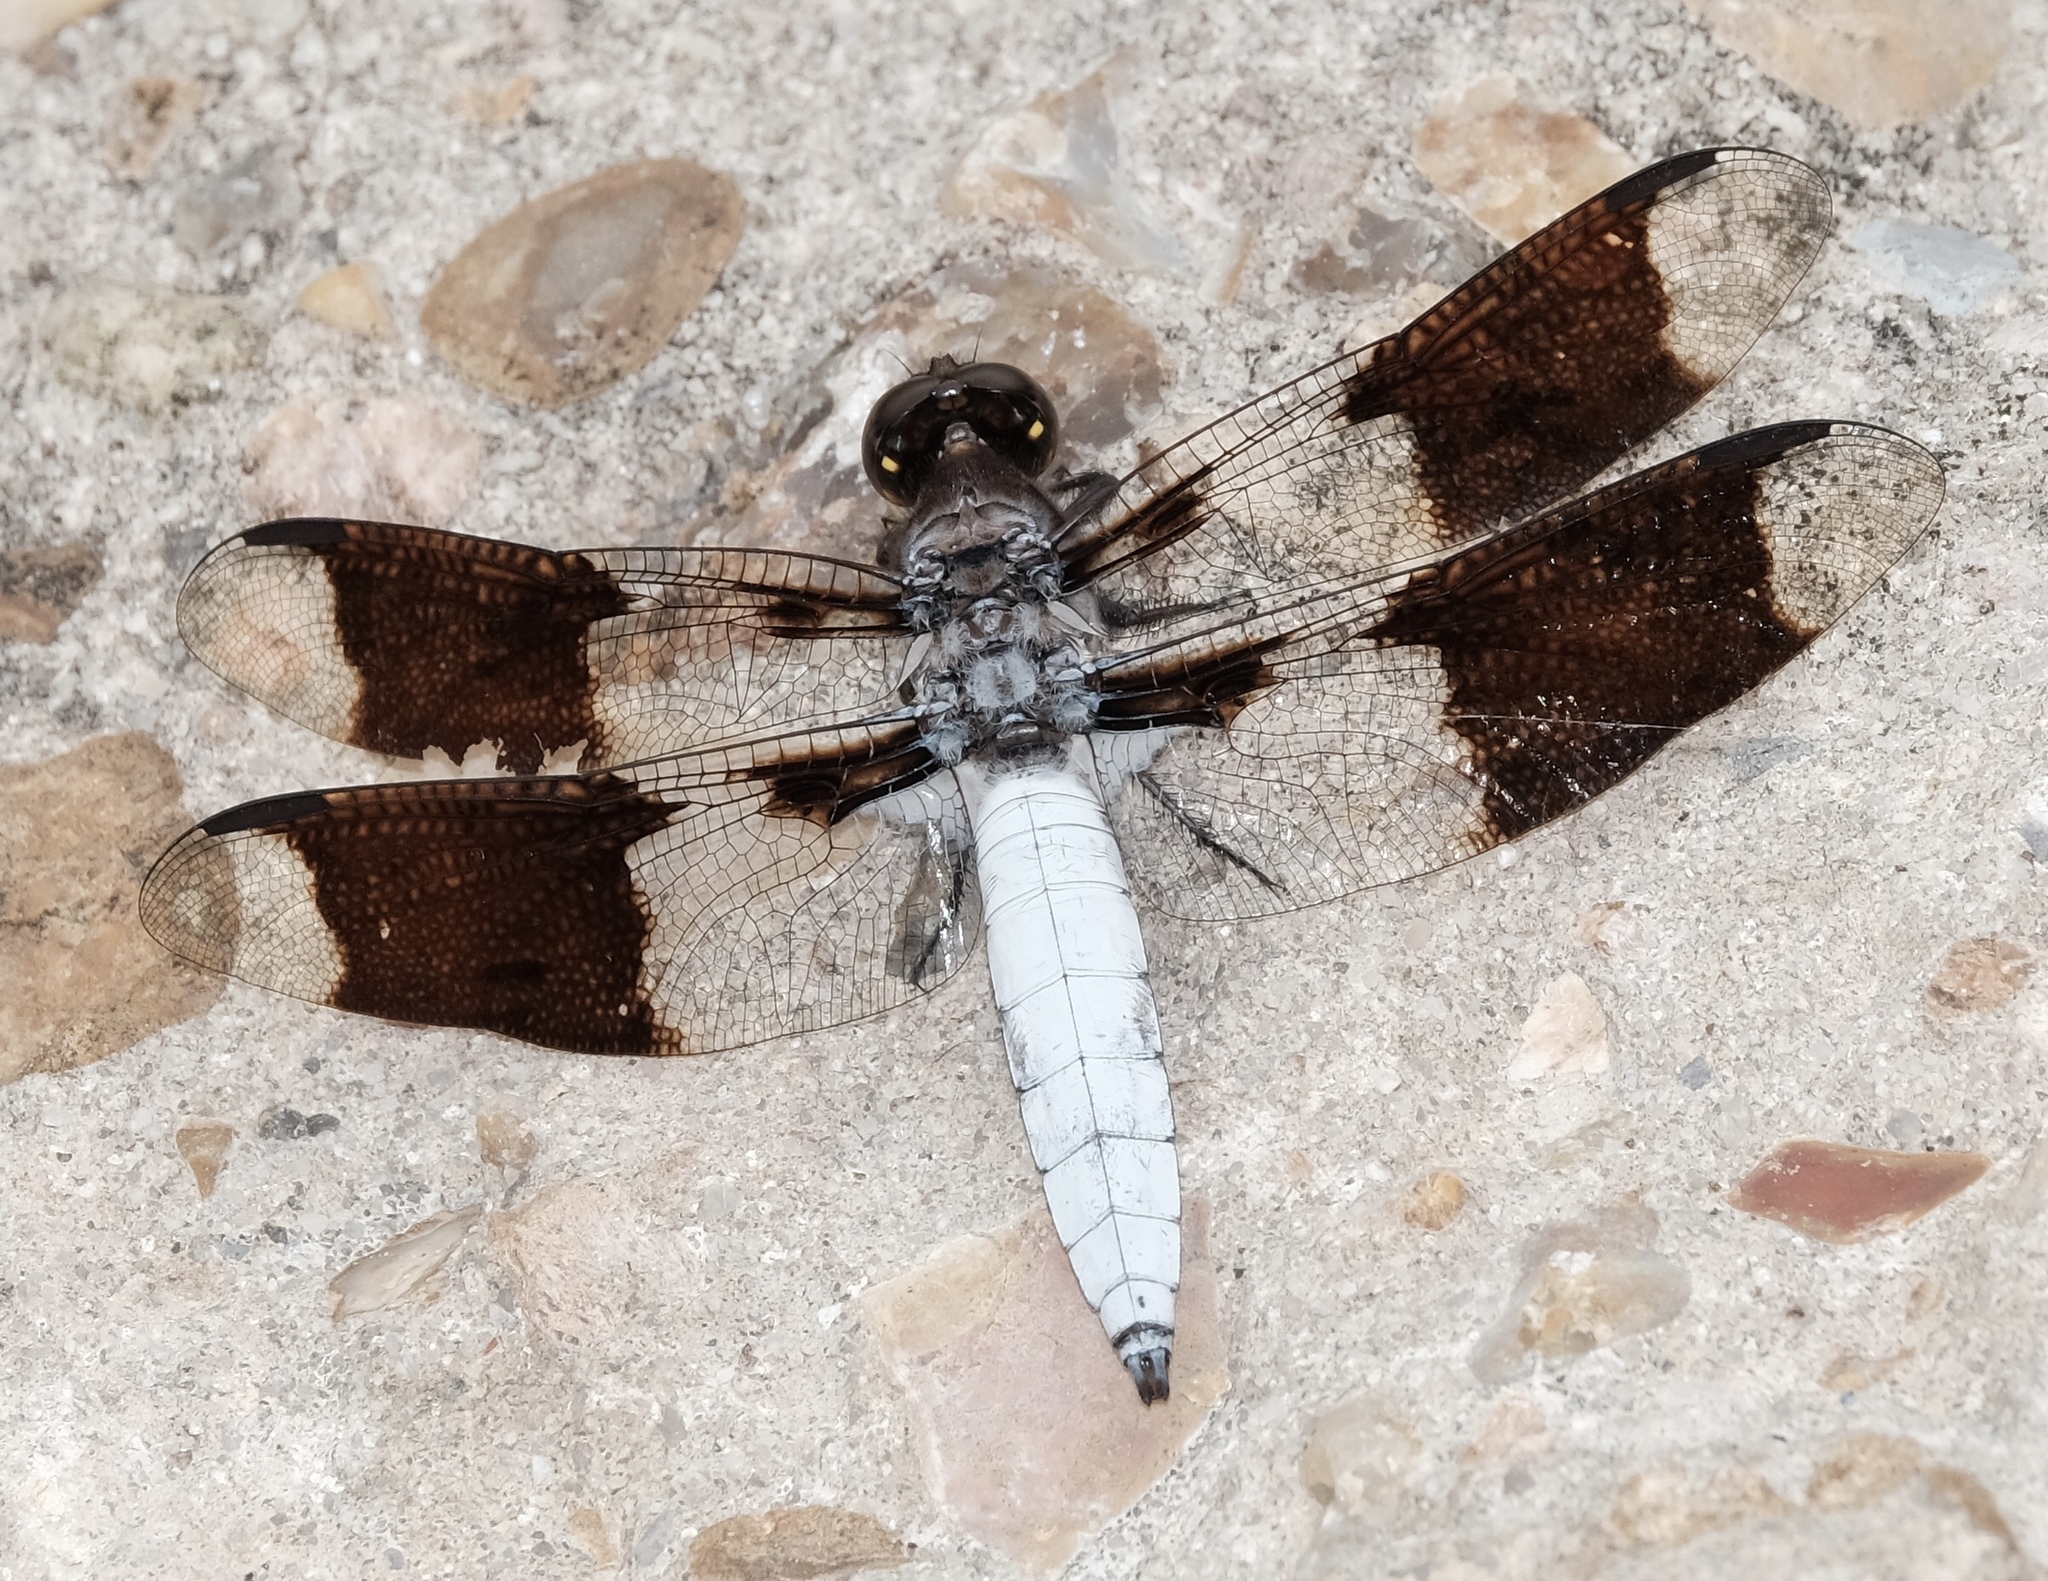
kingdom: Animalia
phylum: Arthropoda
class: Insecta
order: Odonata
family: Libellulidae
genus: Plathemis
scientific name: Plathemis lydia
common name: Common whitetail
